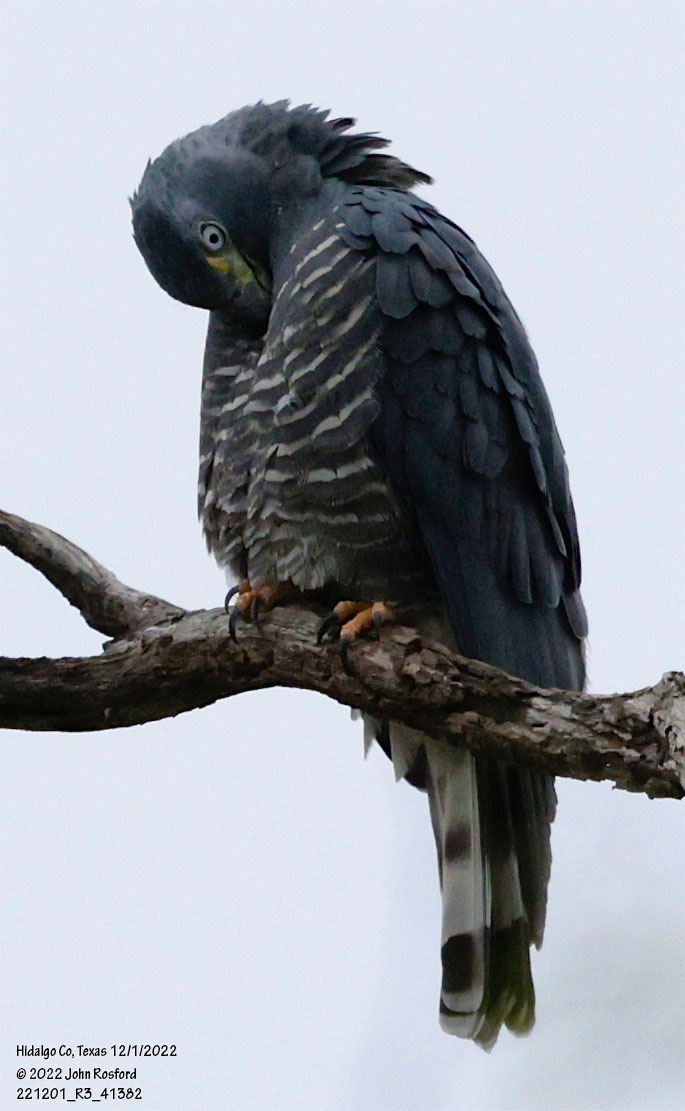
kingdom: Animalia
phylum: Chordata
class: Aves
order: Accipitriformes
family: Accipitridae
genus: Chondrohierax
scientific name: Chondrohierax uncinatus
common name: Hook-billed kite
